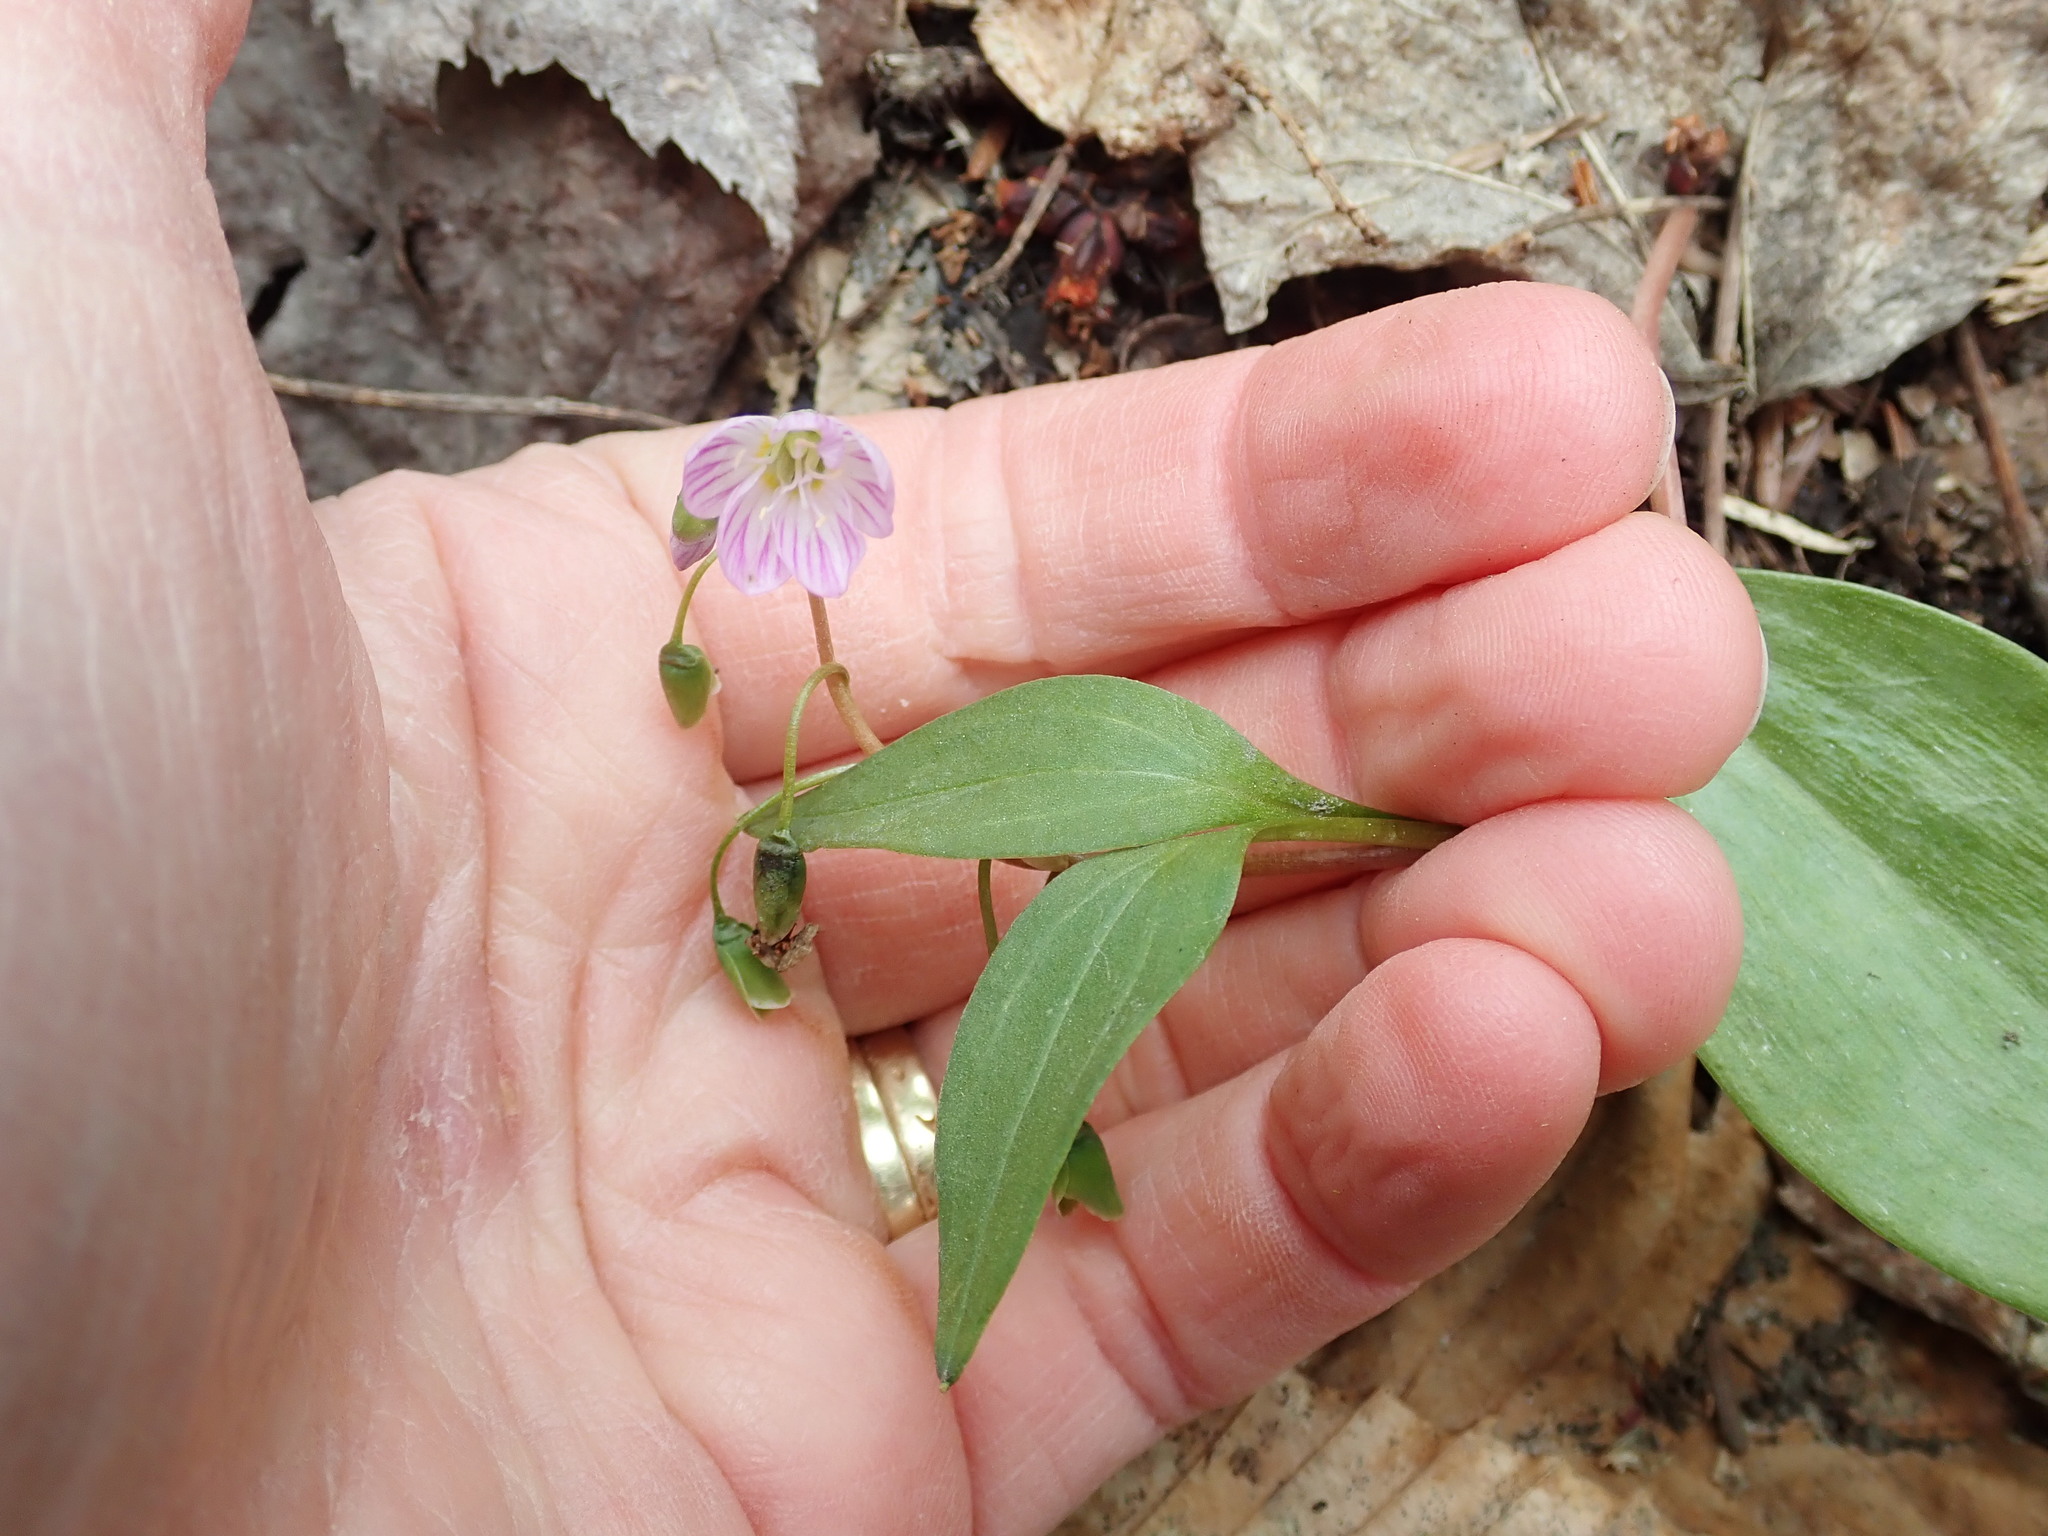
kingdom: Plantae
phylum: Tracheophyta
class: Magnoliopsida
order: Caryophyllales
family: Montiaceae
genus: Claytonia
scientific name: Claytonia caroliniana
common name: Carolina spring beauty
